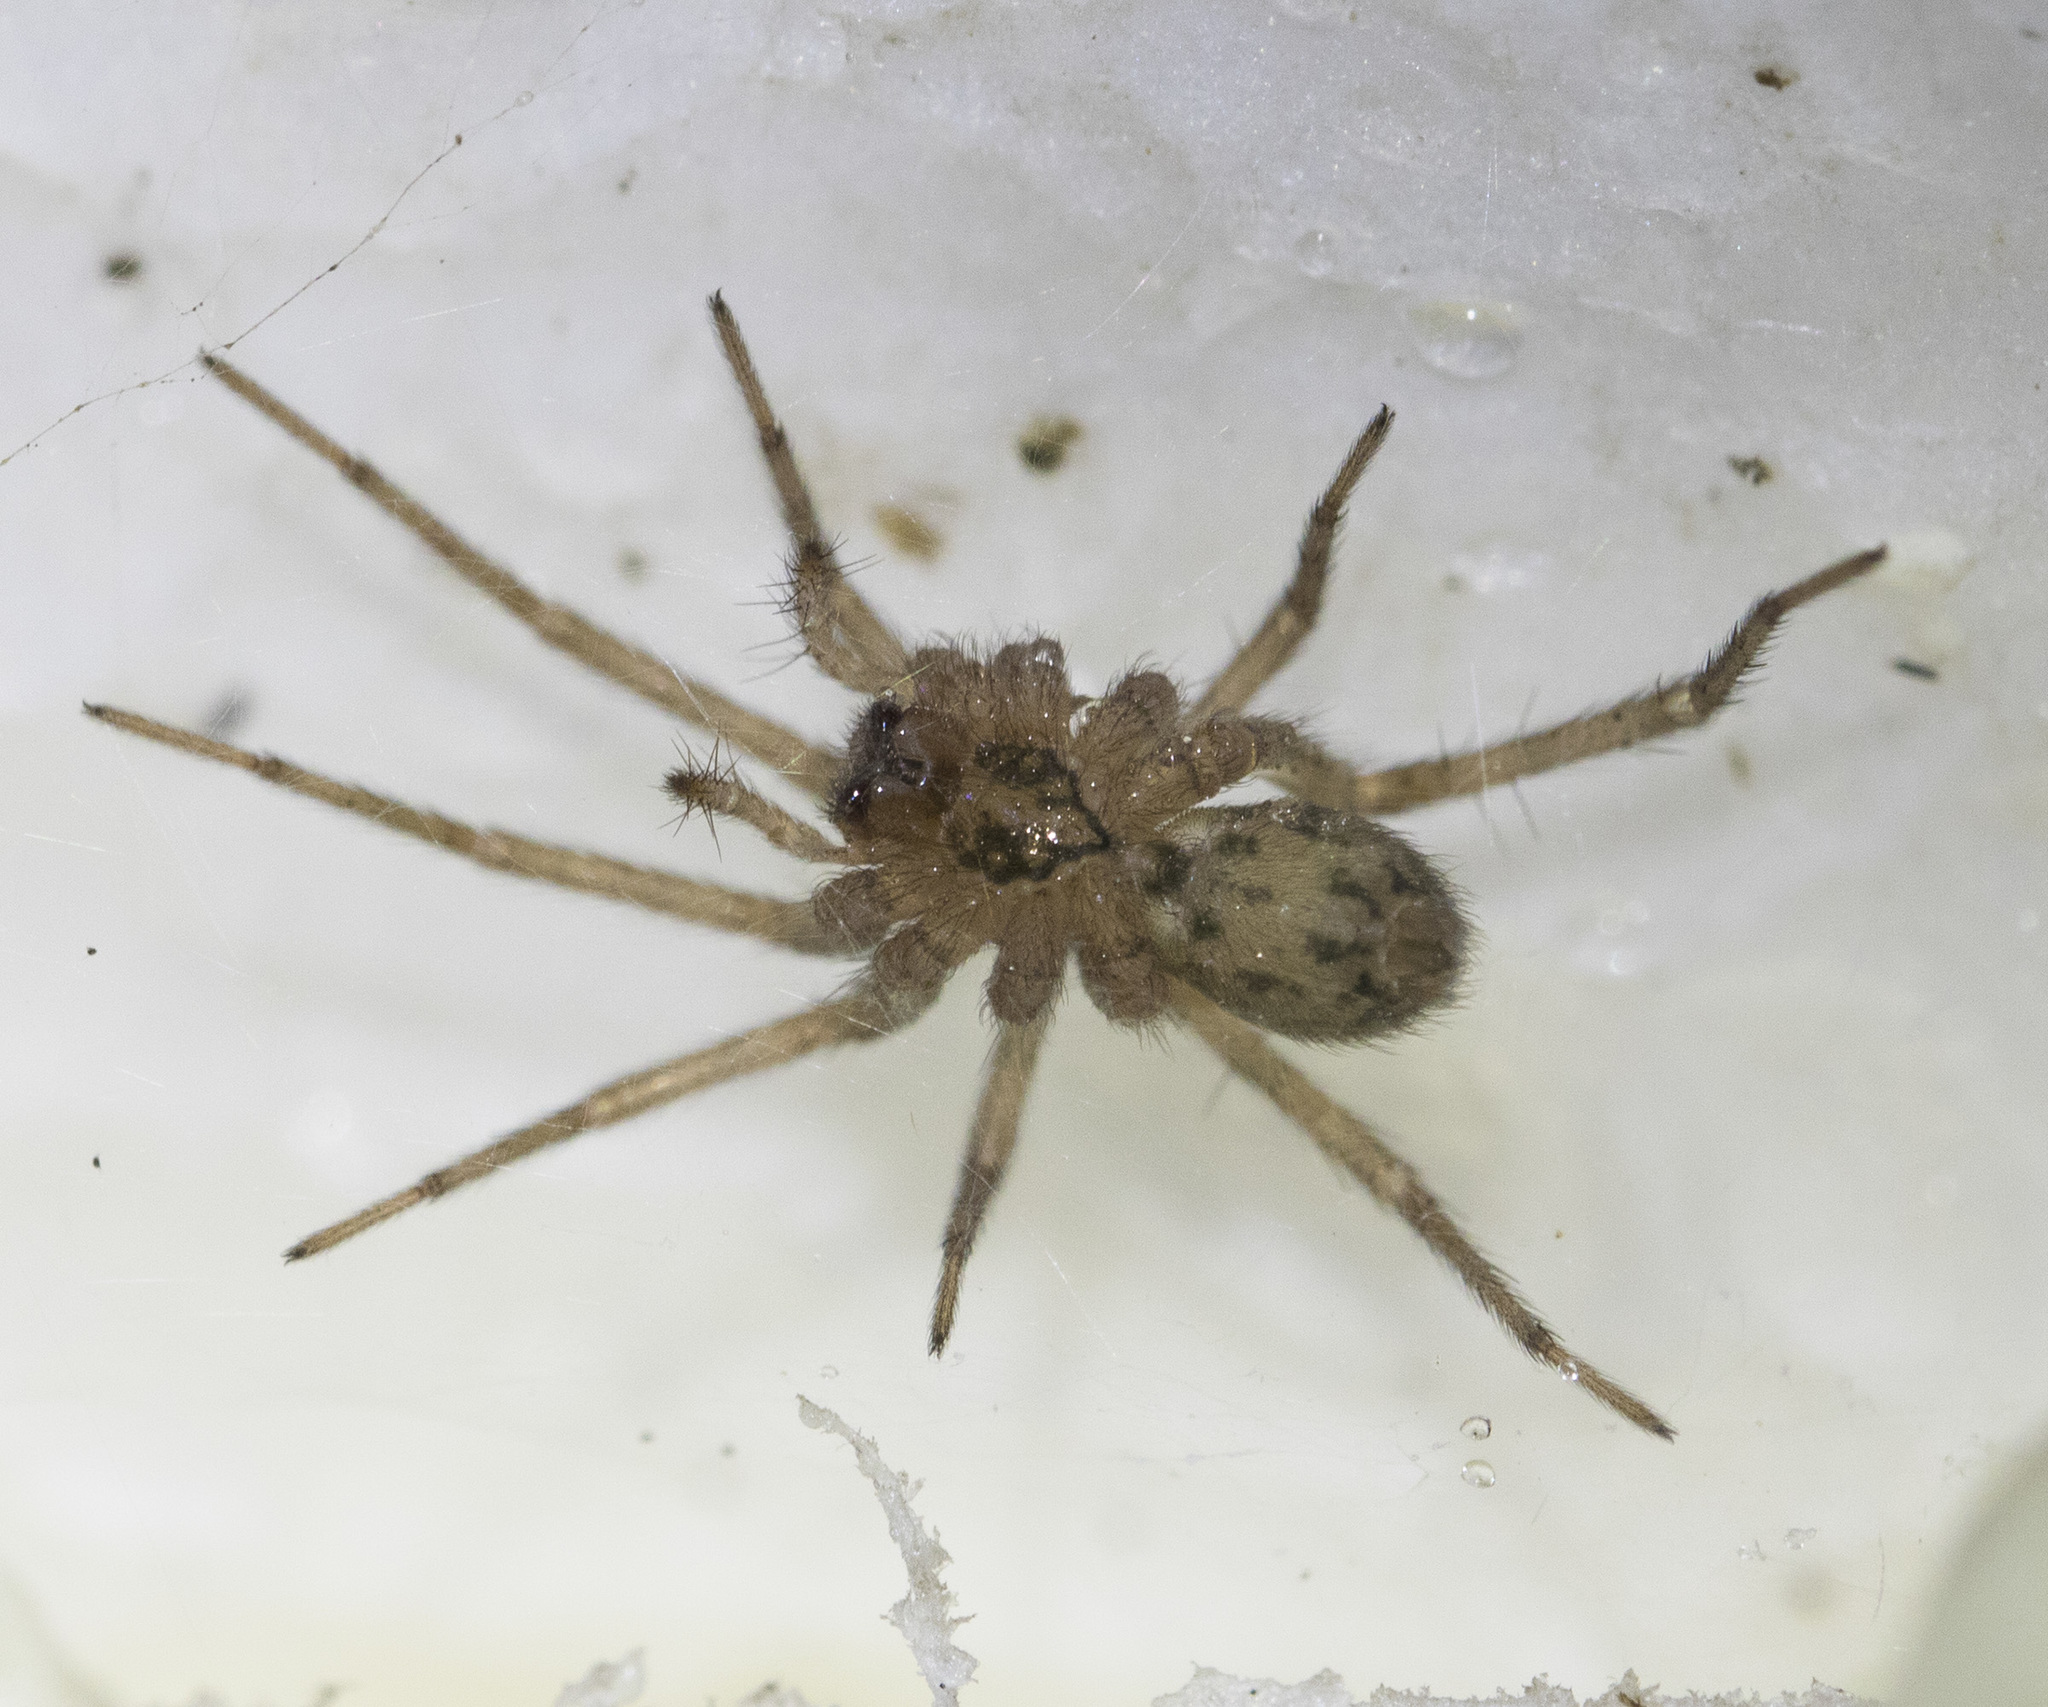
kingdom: Animalia
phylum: Arthropoda
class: Arachnida
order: Araneae
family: Agelenidae
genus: Tegenaria
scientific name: Tegenaria domestica
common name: Barn funnel weaver
